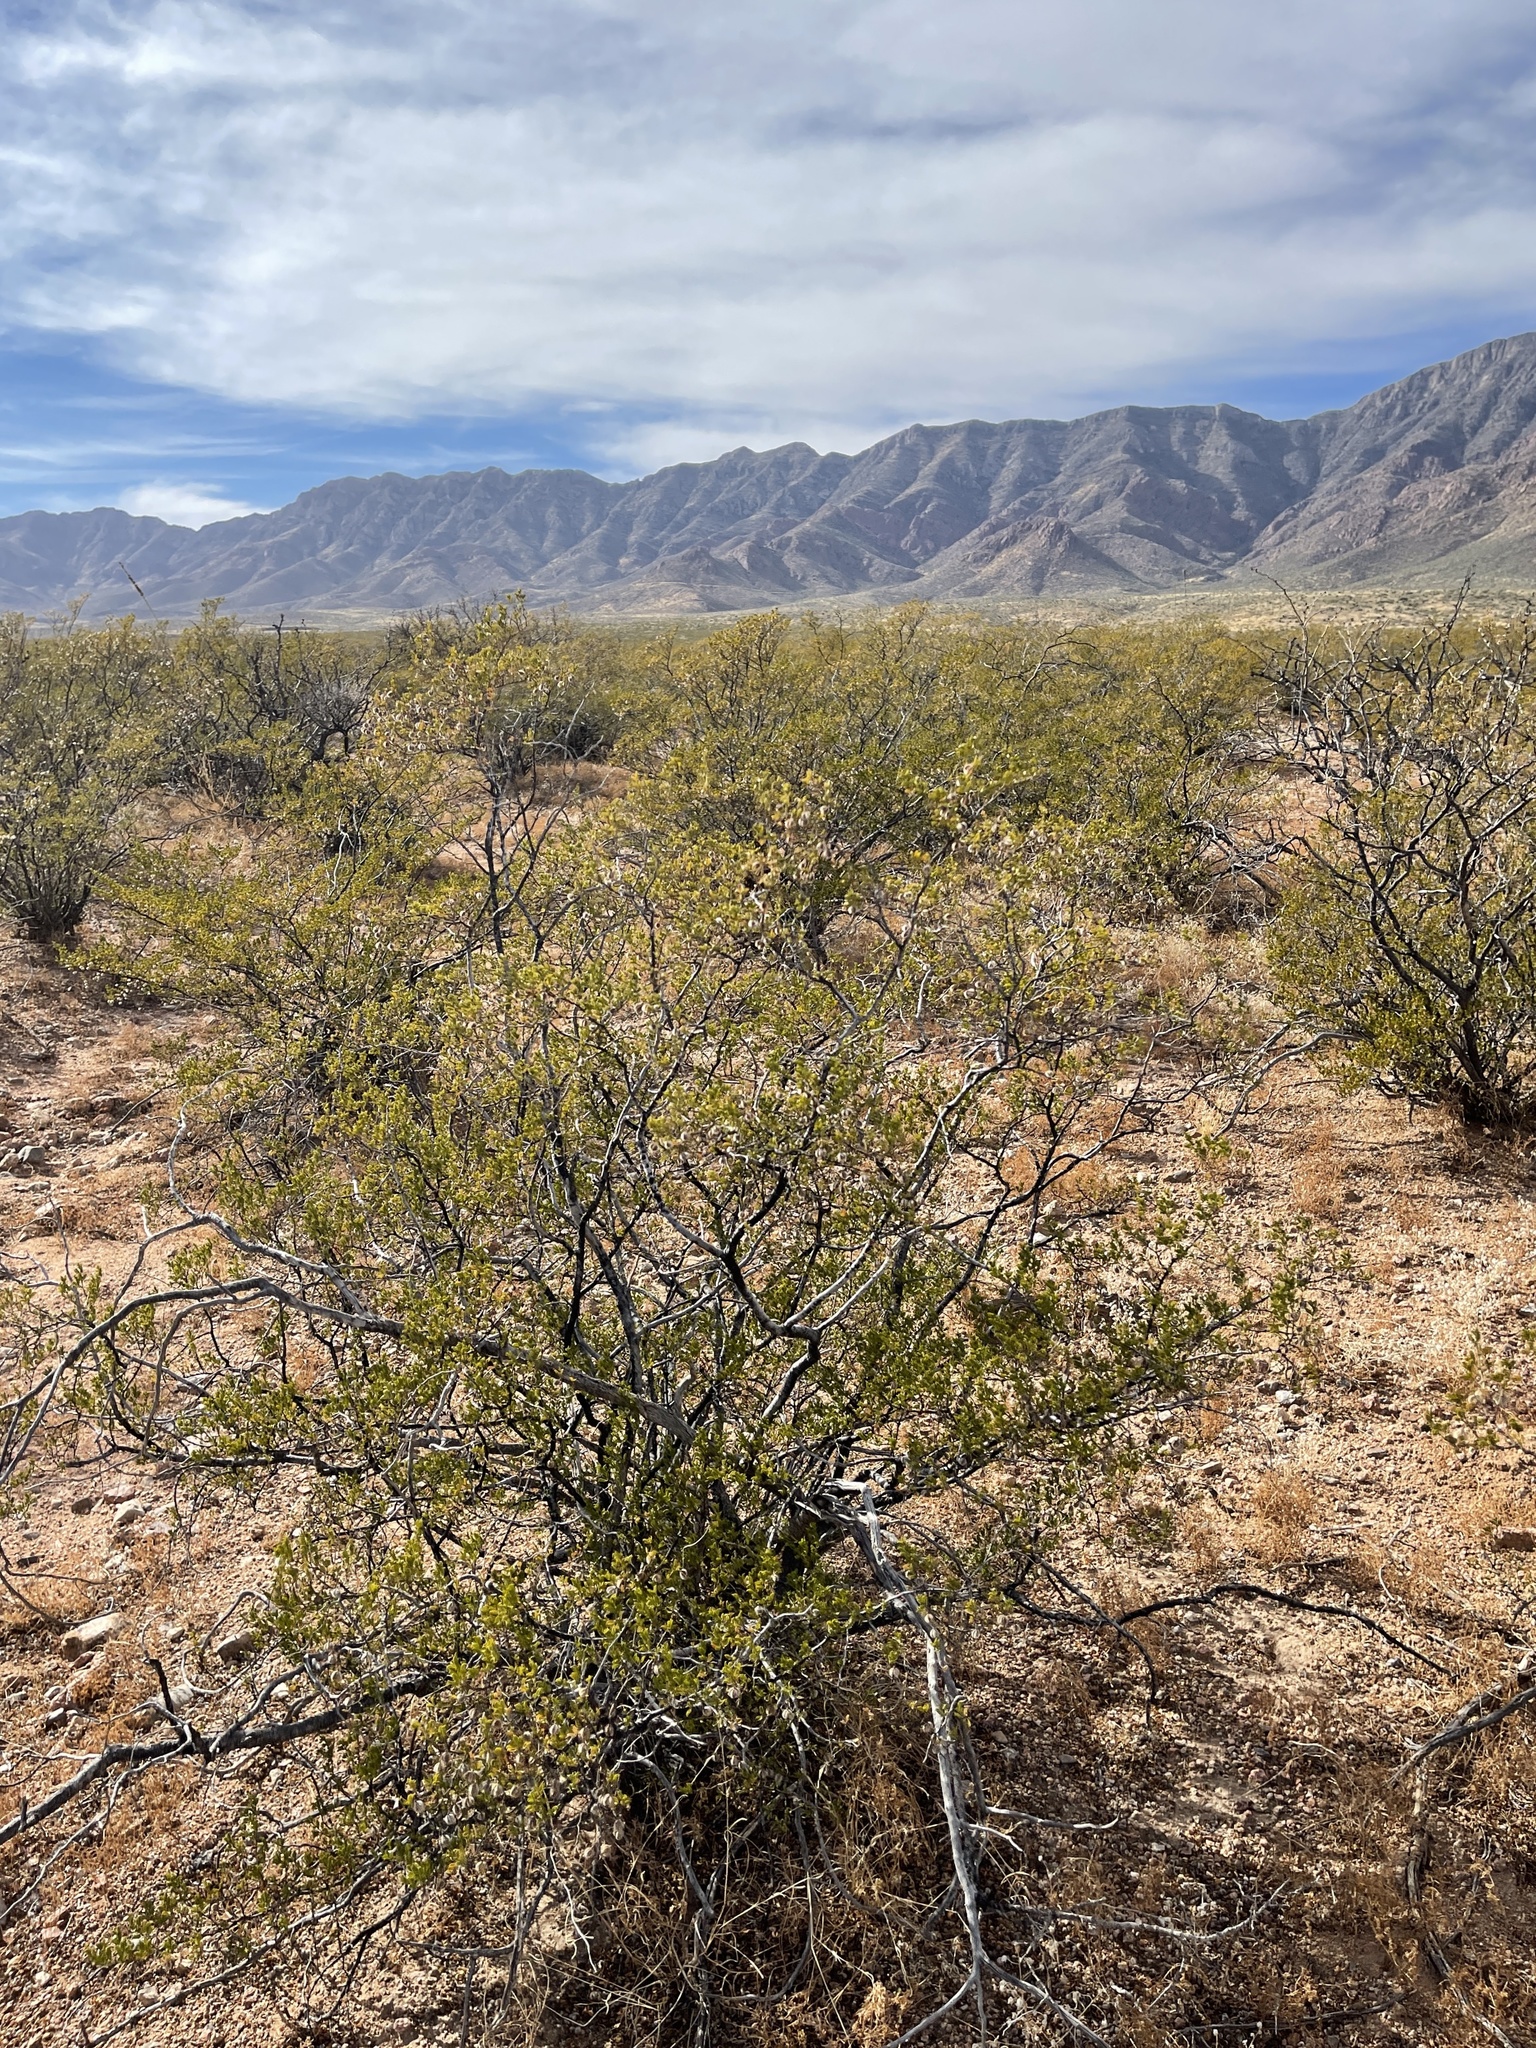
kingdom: Plantae
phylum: Tracheophyta
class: Magnoliopsida
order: Zygophyllales
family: Zygophyllaceae
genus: Larrea
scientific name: Larrea tridentata
